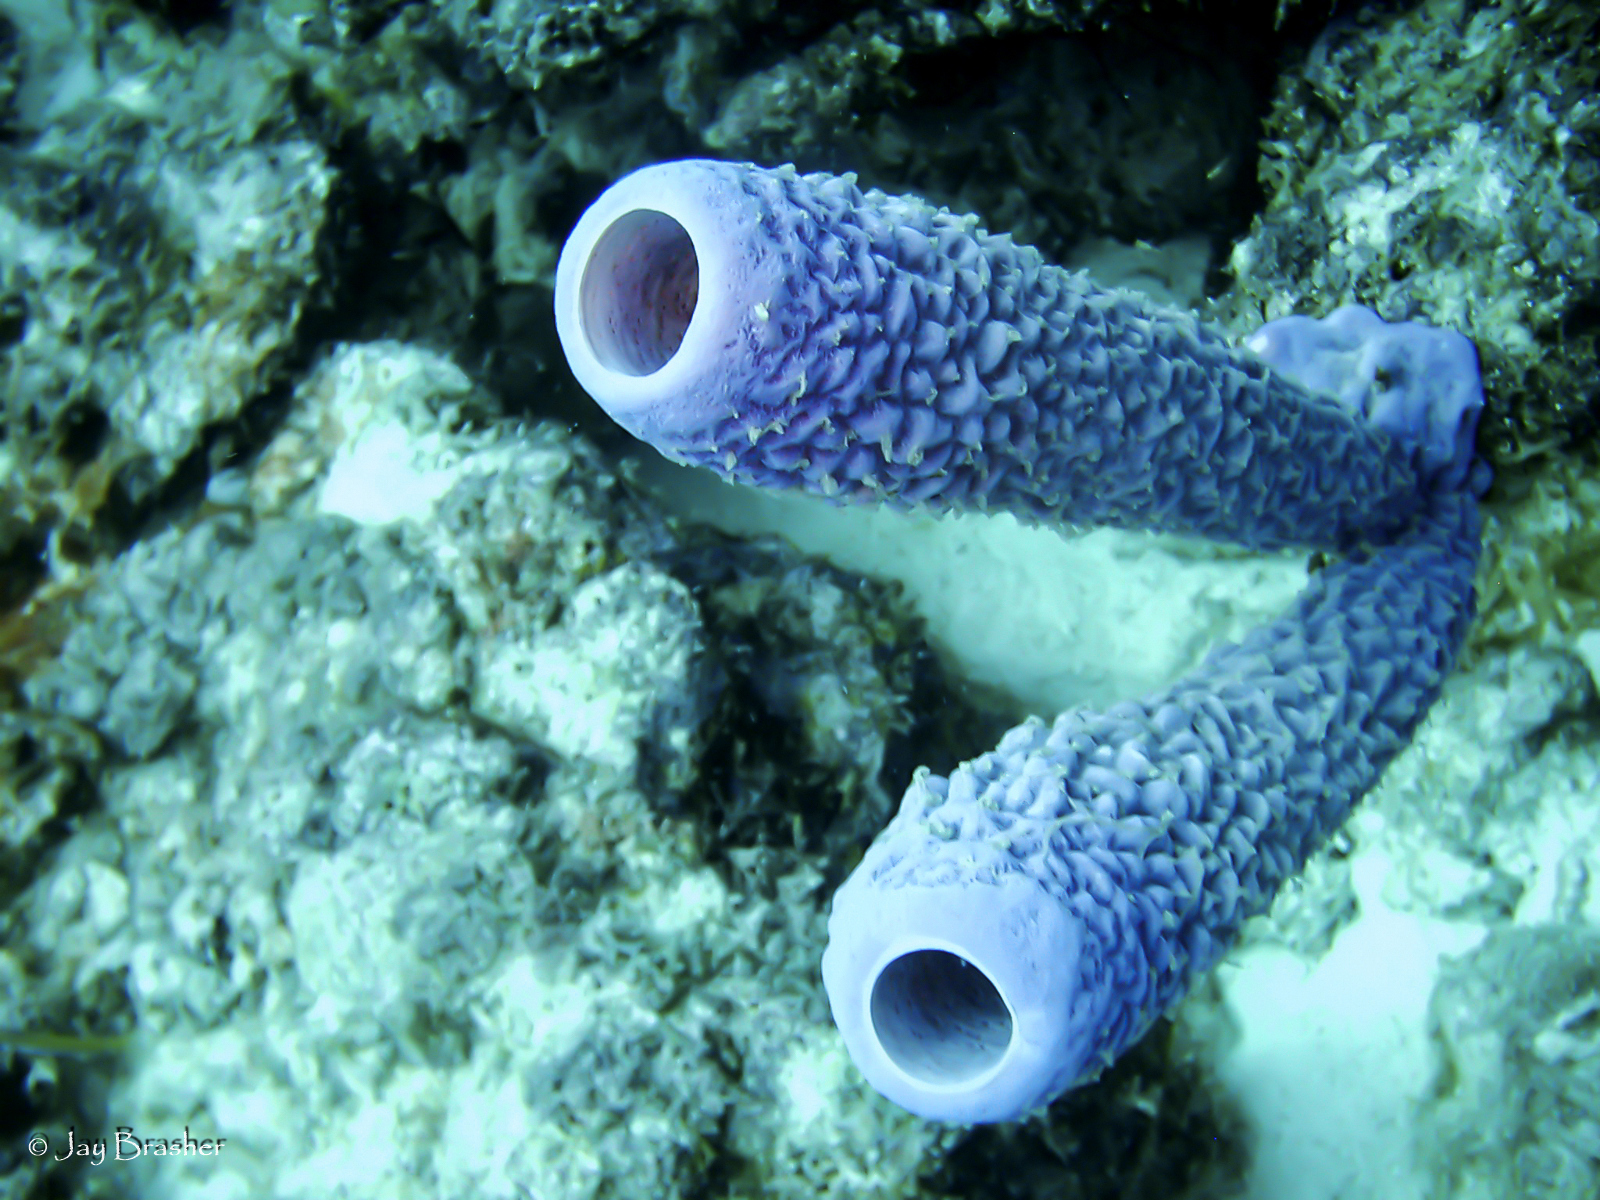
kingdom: Animalia
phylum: Porifera
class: Demospongiae
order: Verongiida
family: Aplysinidae
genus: Aplysina
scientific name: Aplysina archeri
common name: Stove-pipe sponge
